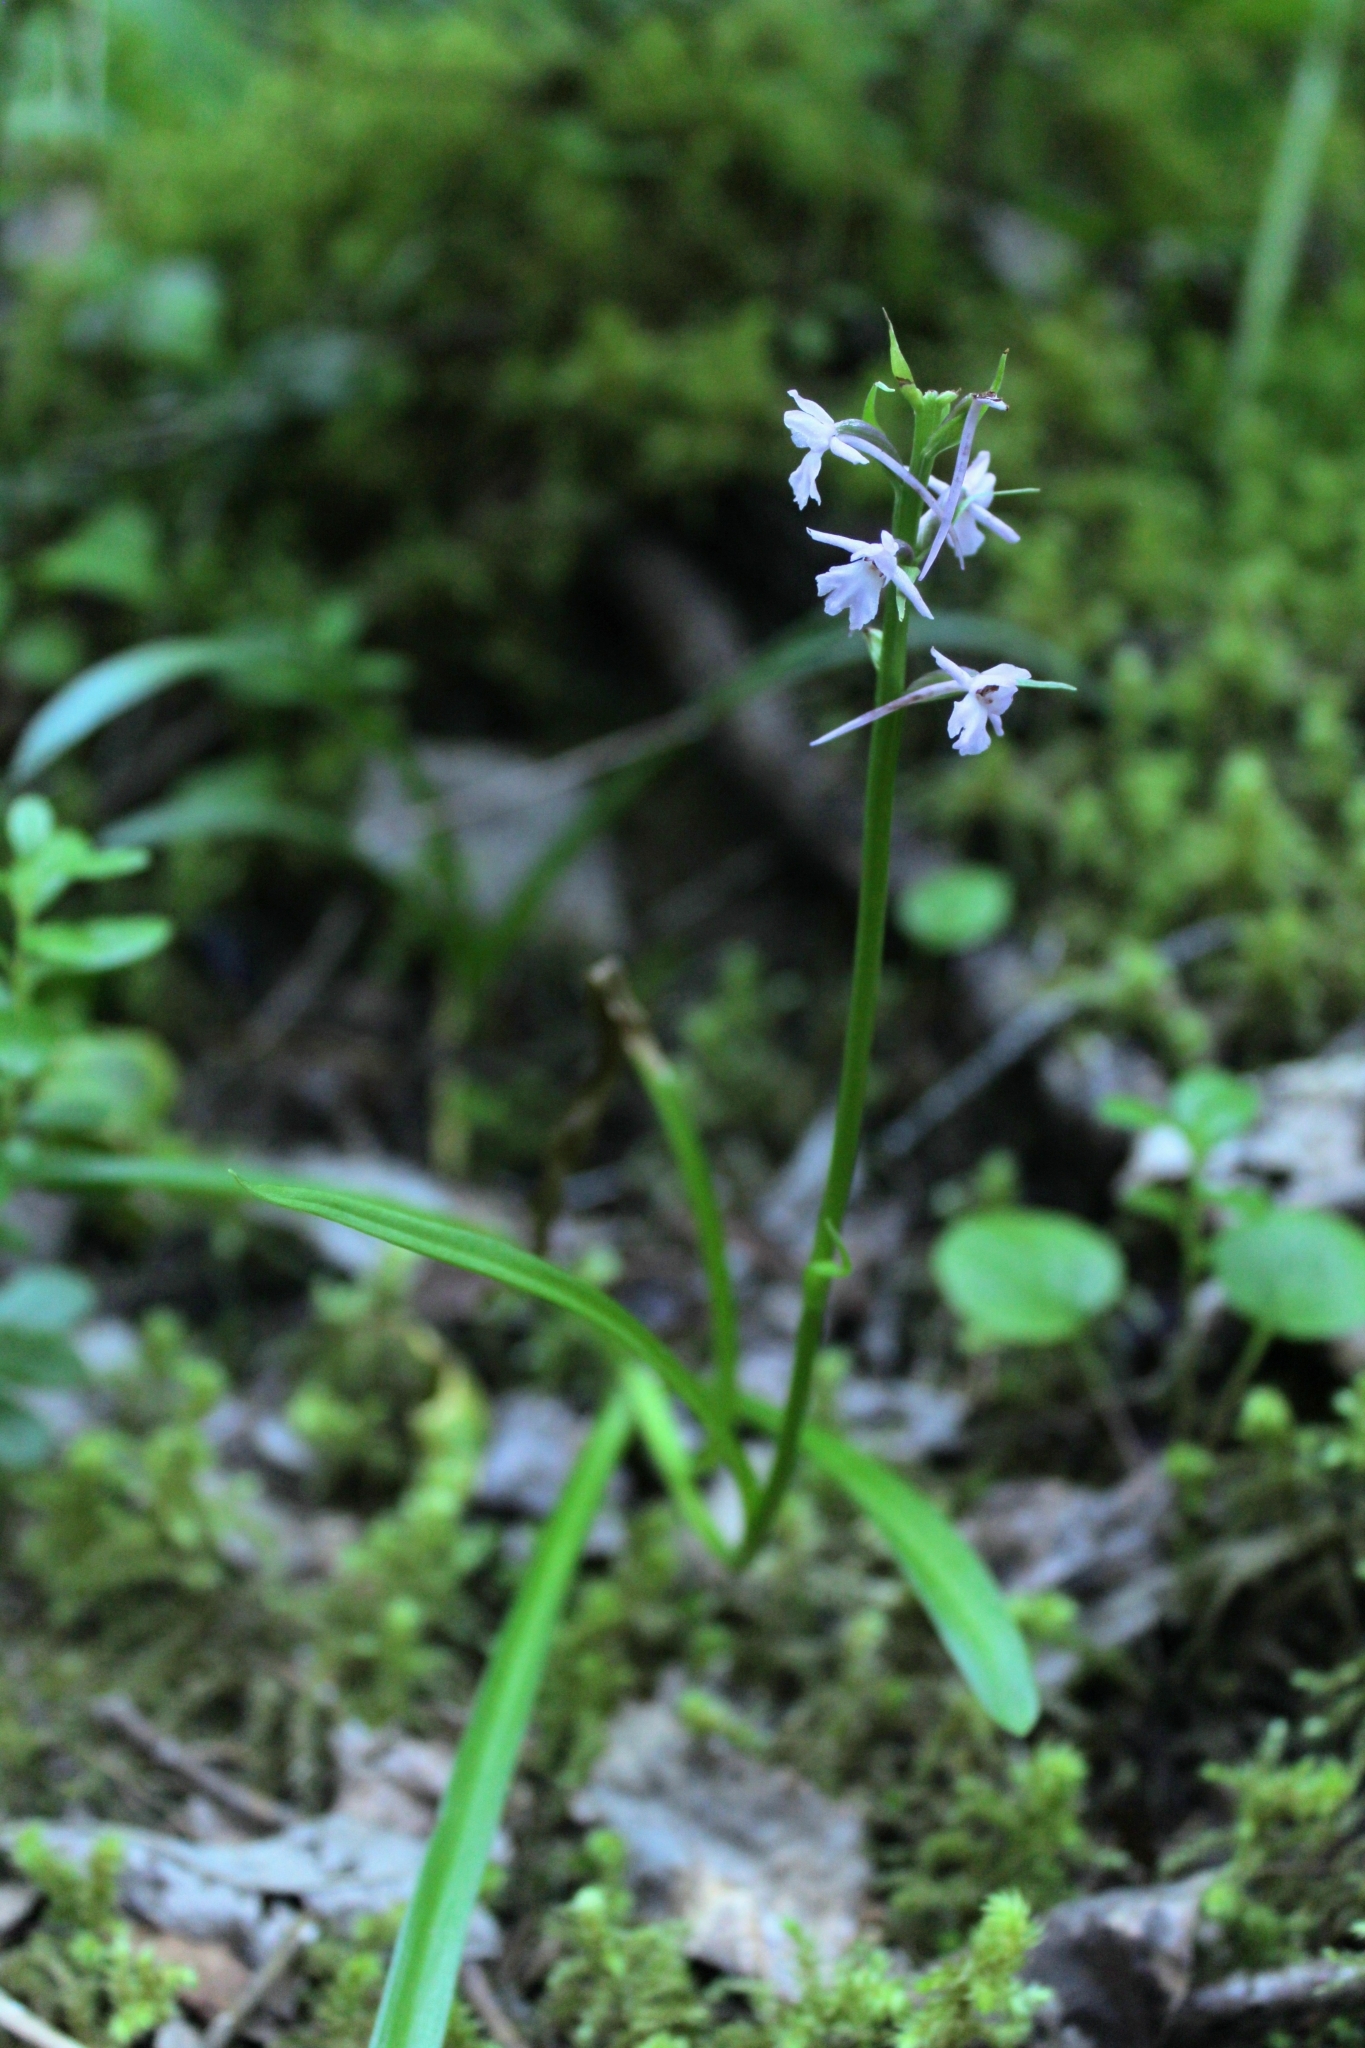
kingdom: Plantae
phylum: Tracheophyta
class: Liliopsida
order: Asparagales
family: Orchidaceae
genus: Gymnadenia
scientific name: Gymnadenia conopsea
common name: Fragrant orchid
